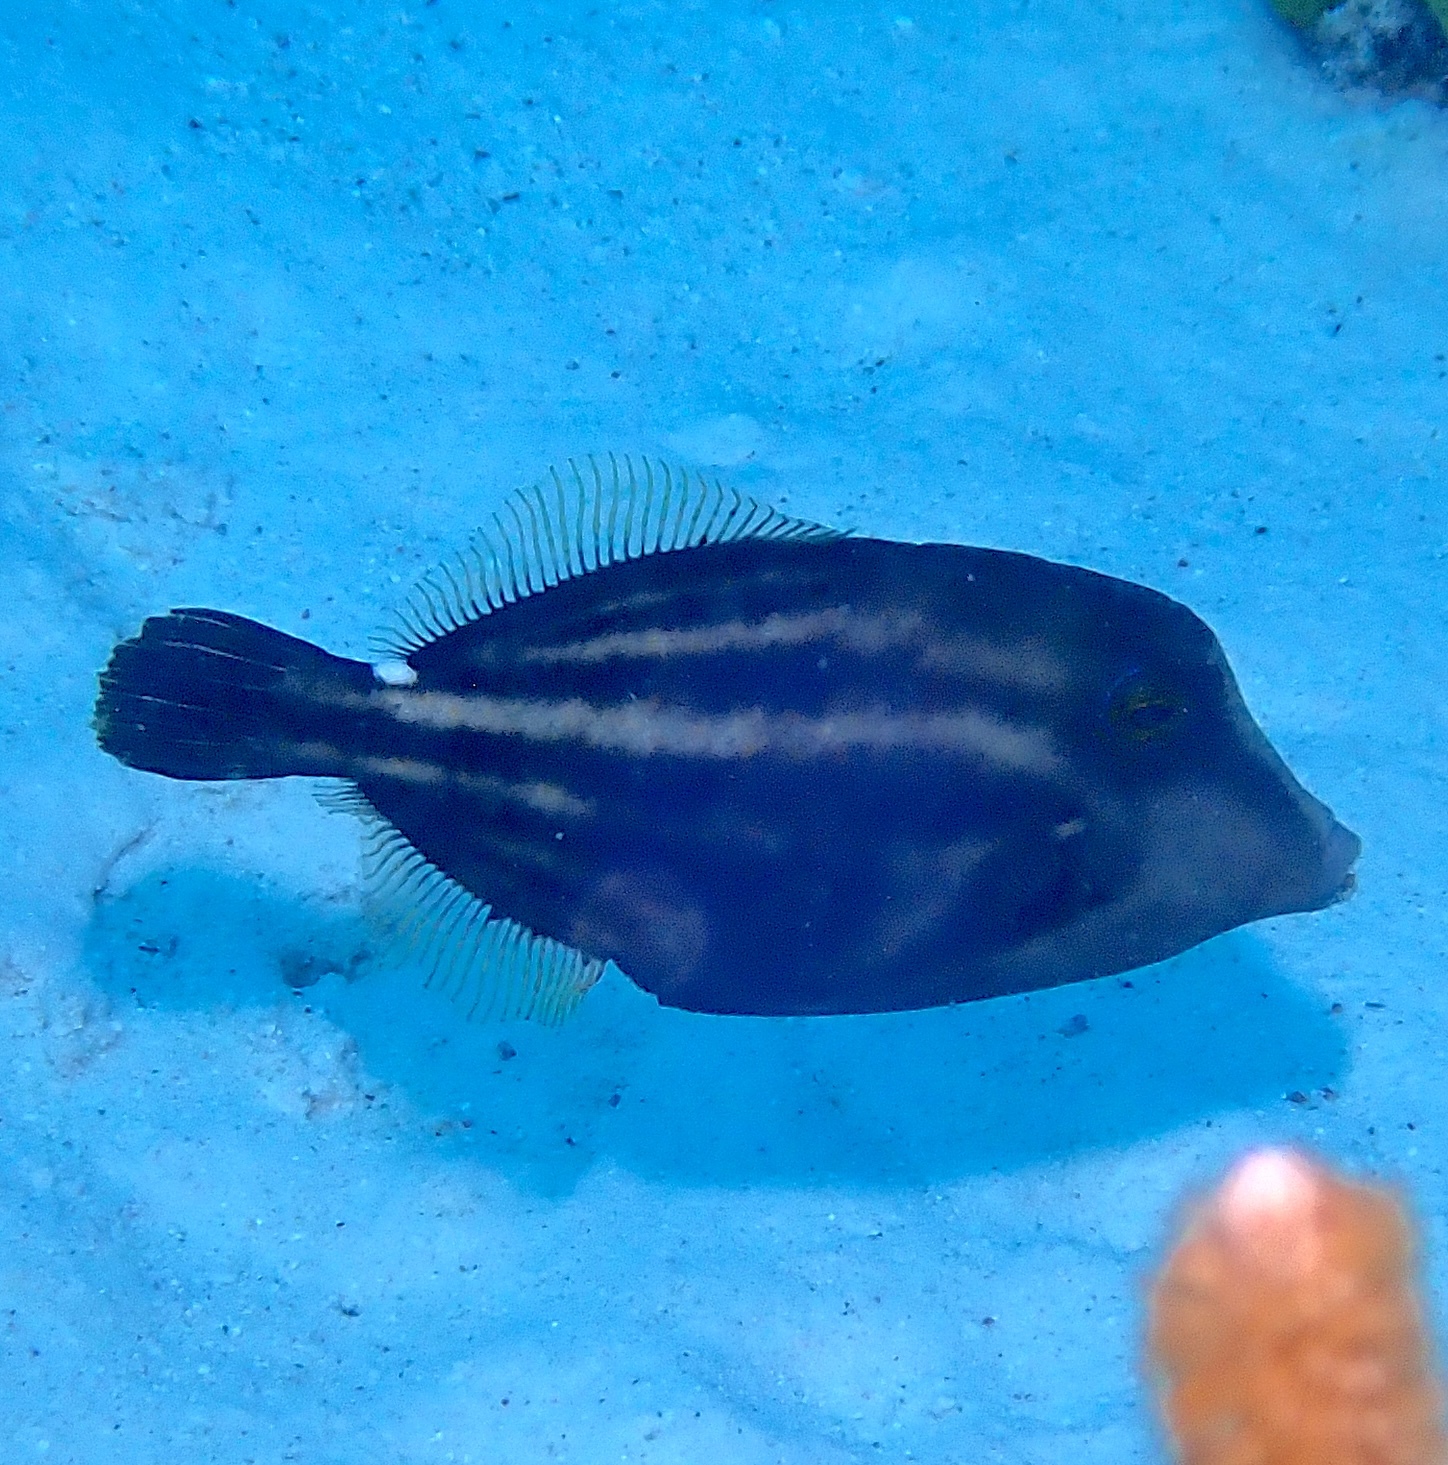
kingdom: Animalia
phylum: Chordata
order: Tetraodontiformes
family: Monacanthidae
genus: Cantherhines
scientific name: Cantherhines pullus
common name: Orangespotted filefish
